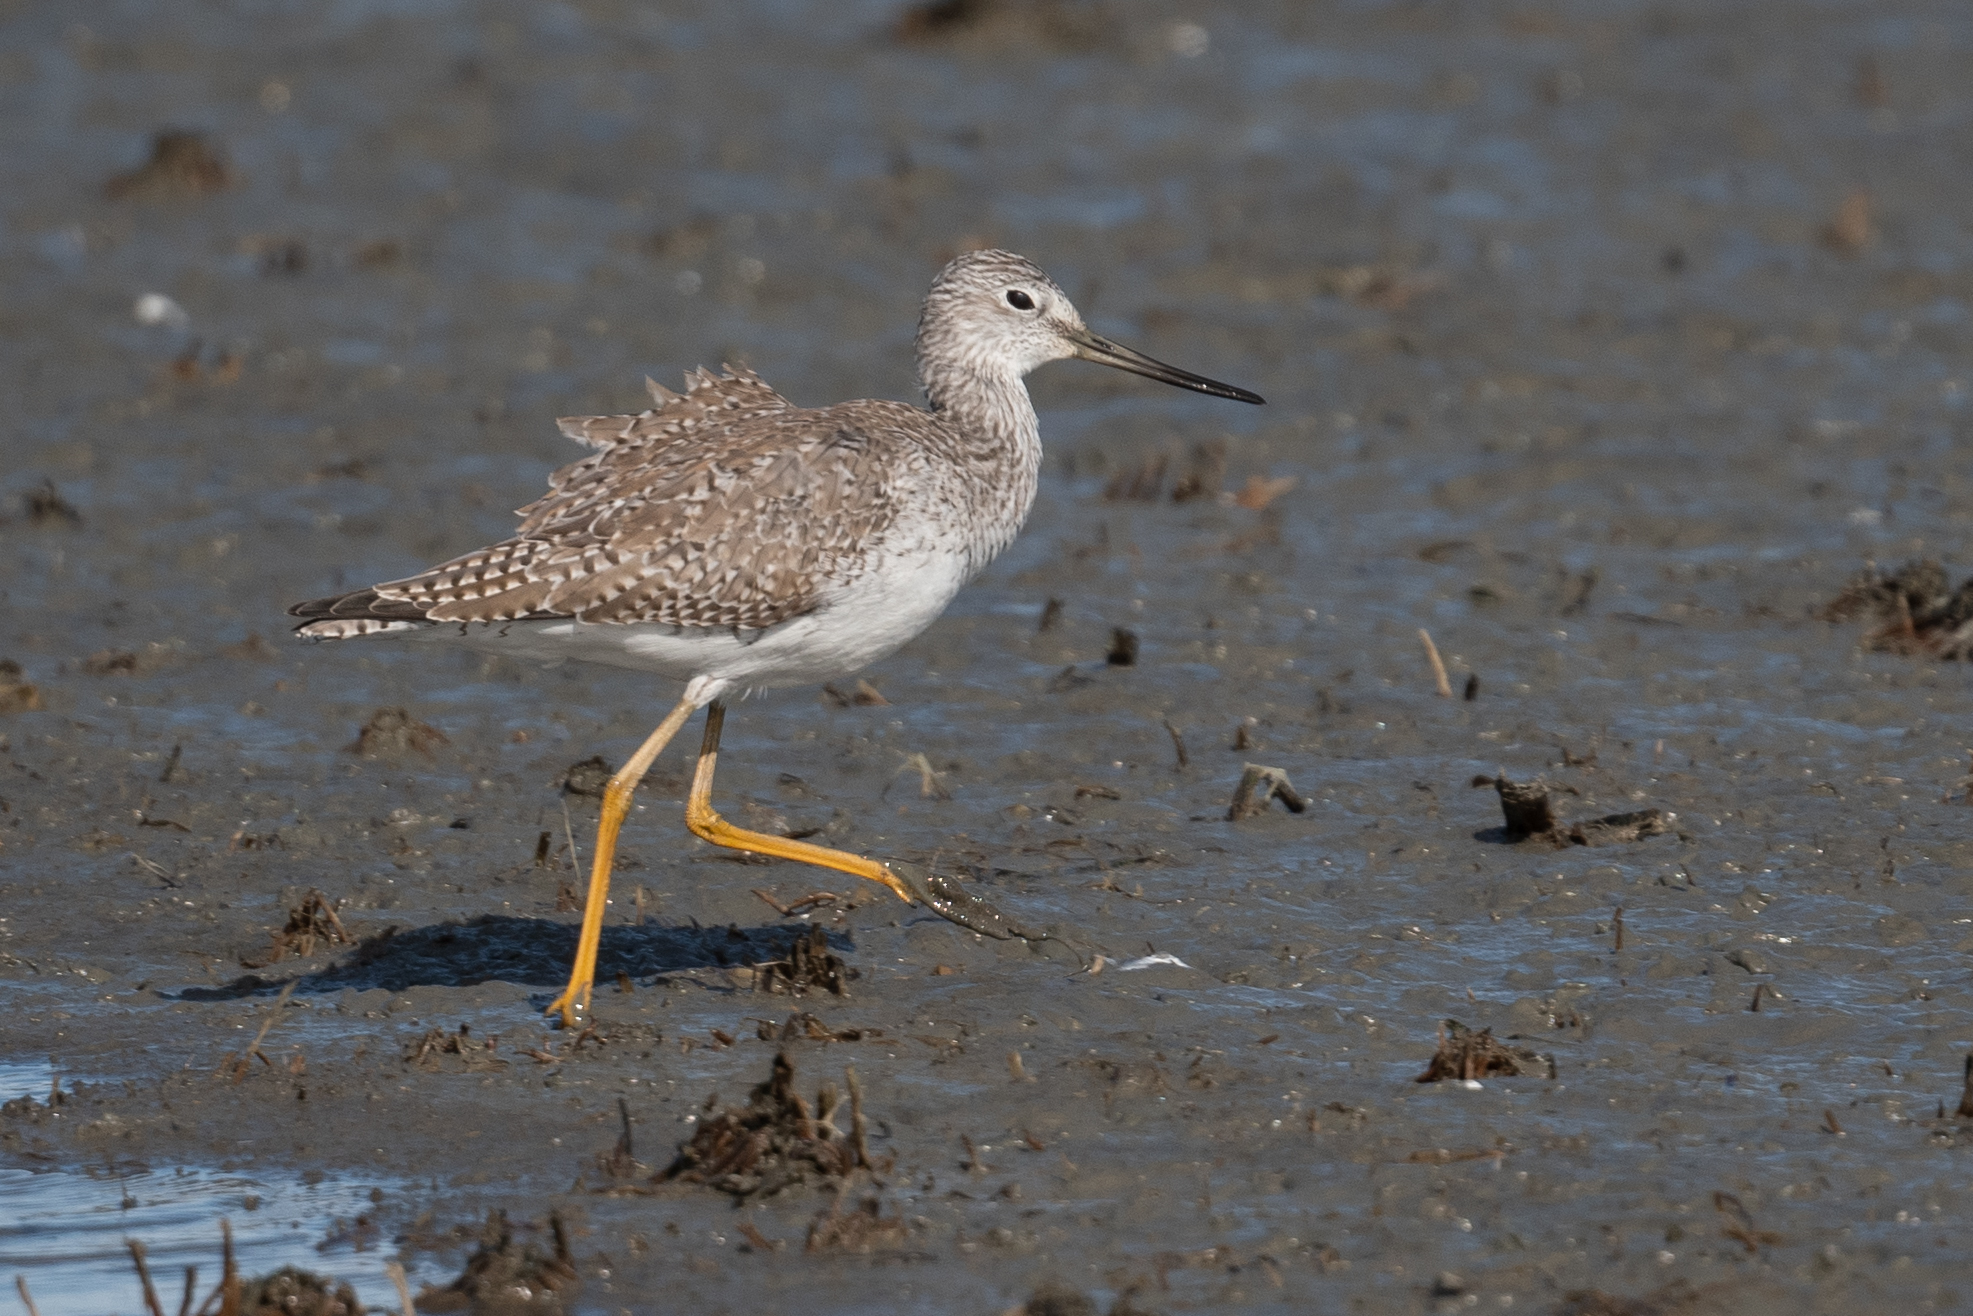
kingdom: Animalia
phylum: Chordata
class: Aves
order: Charadriiformes
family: Scolopacidae
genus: Tringa
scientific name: Tringa melanoleuca
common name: Greater yellowlegs
